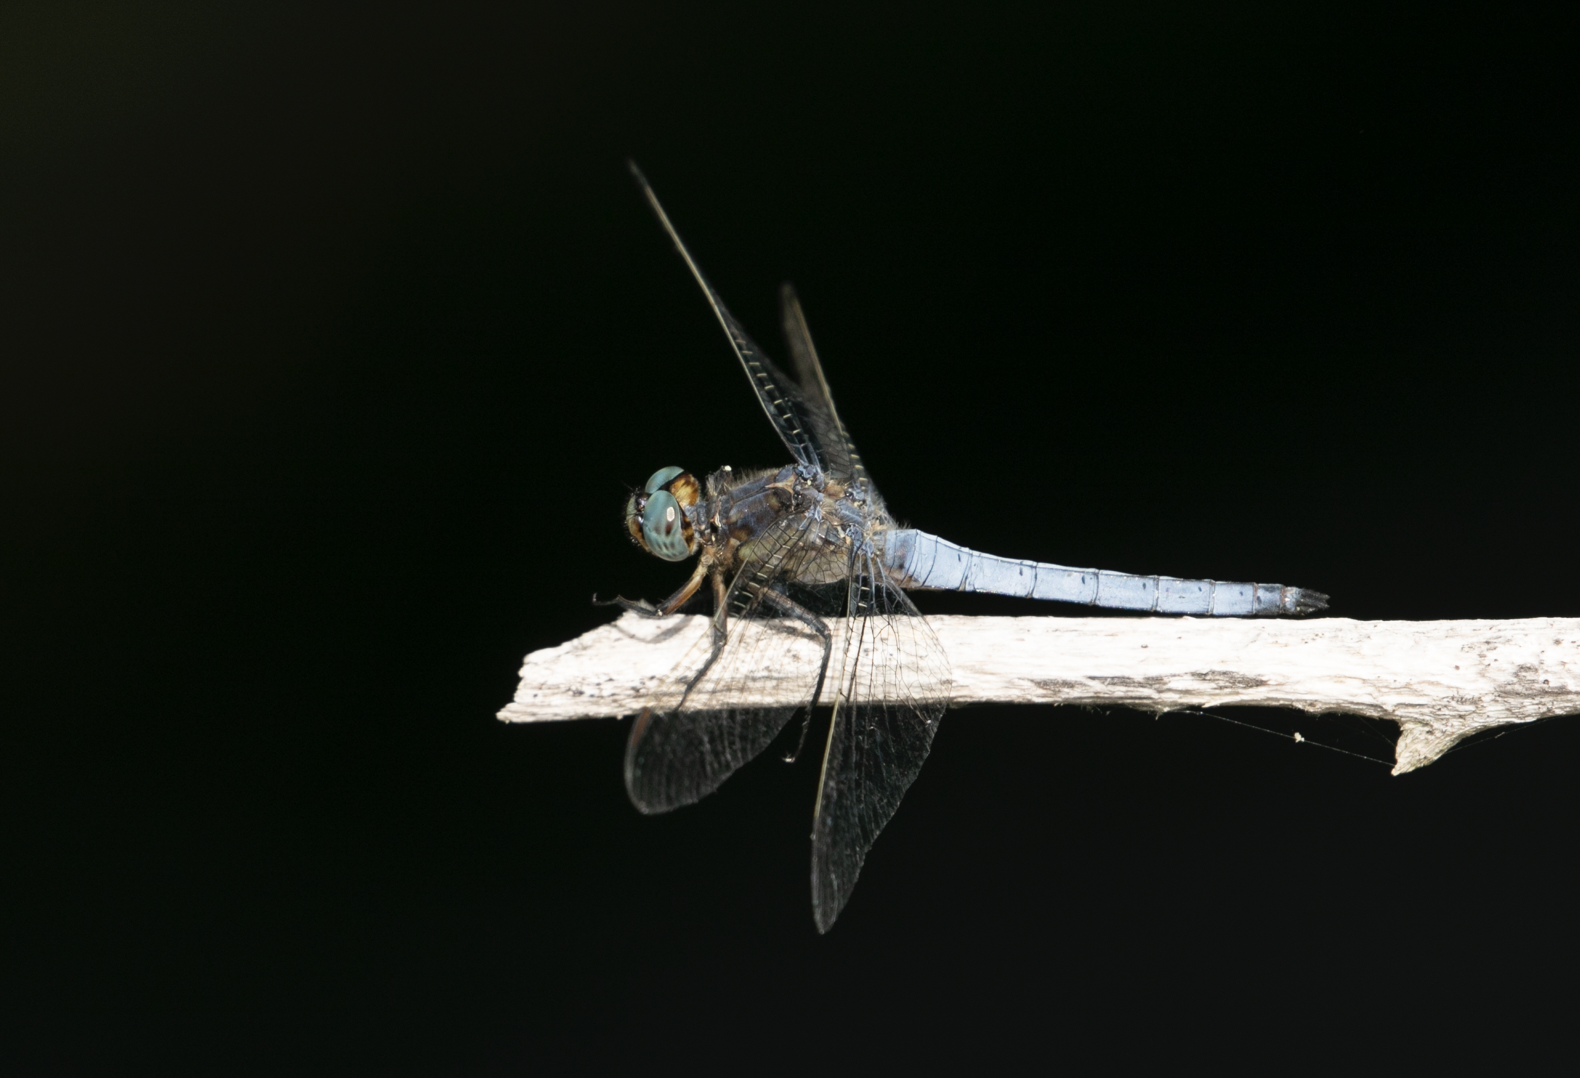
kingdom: Animalia
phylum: Arthropoda
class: Insecta
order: Odonata
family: Libellulidae
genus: Orthetrum
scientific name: Orthetrum coerulescens
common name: Keeled skimmer
